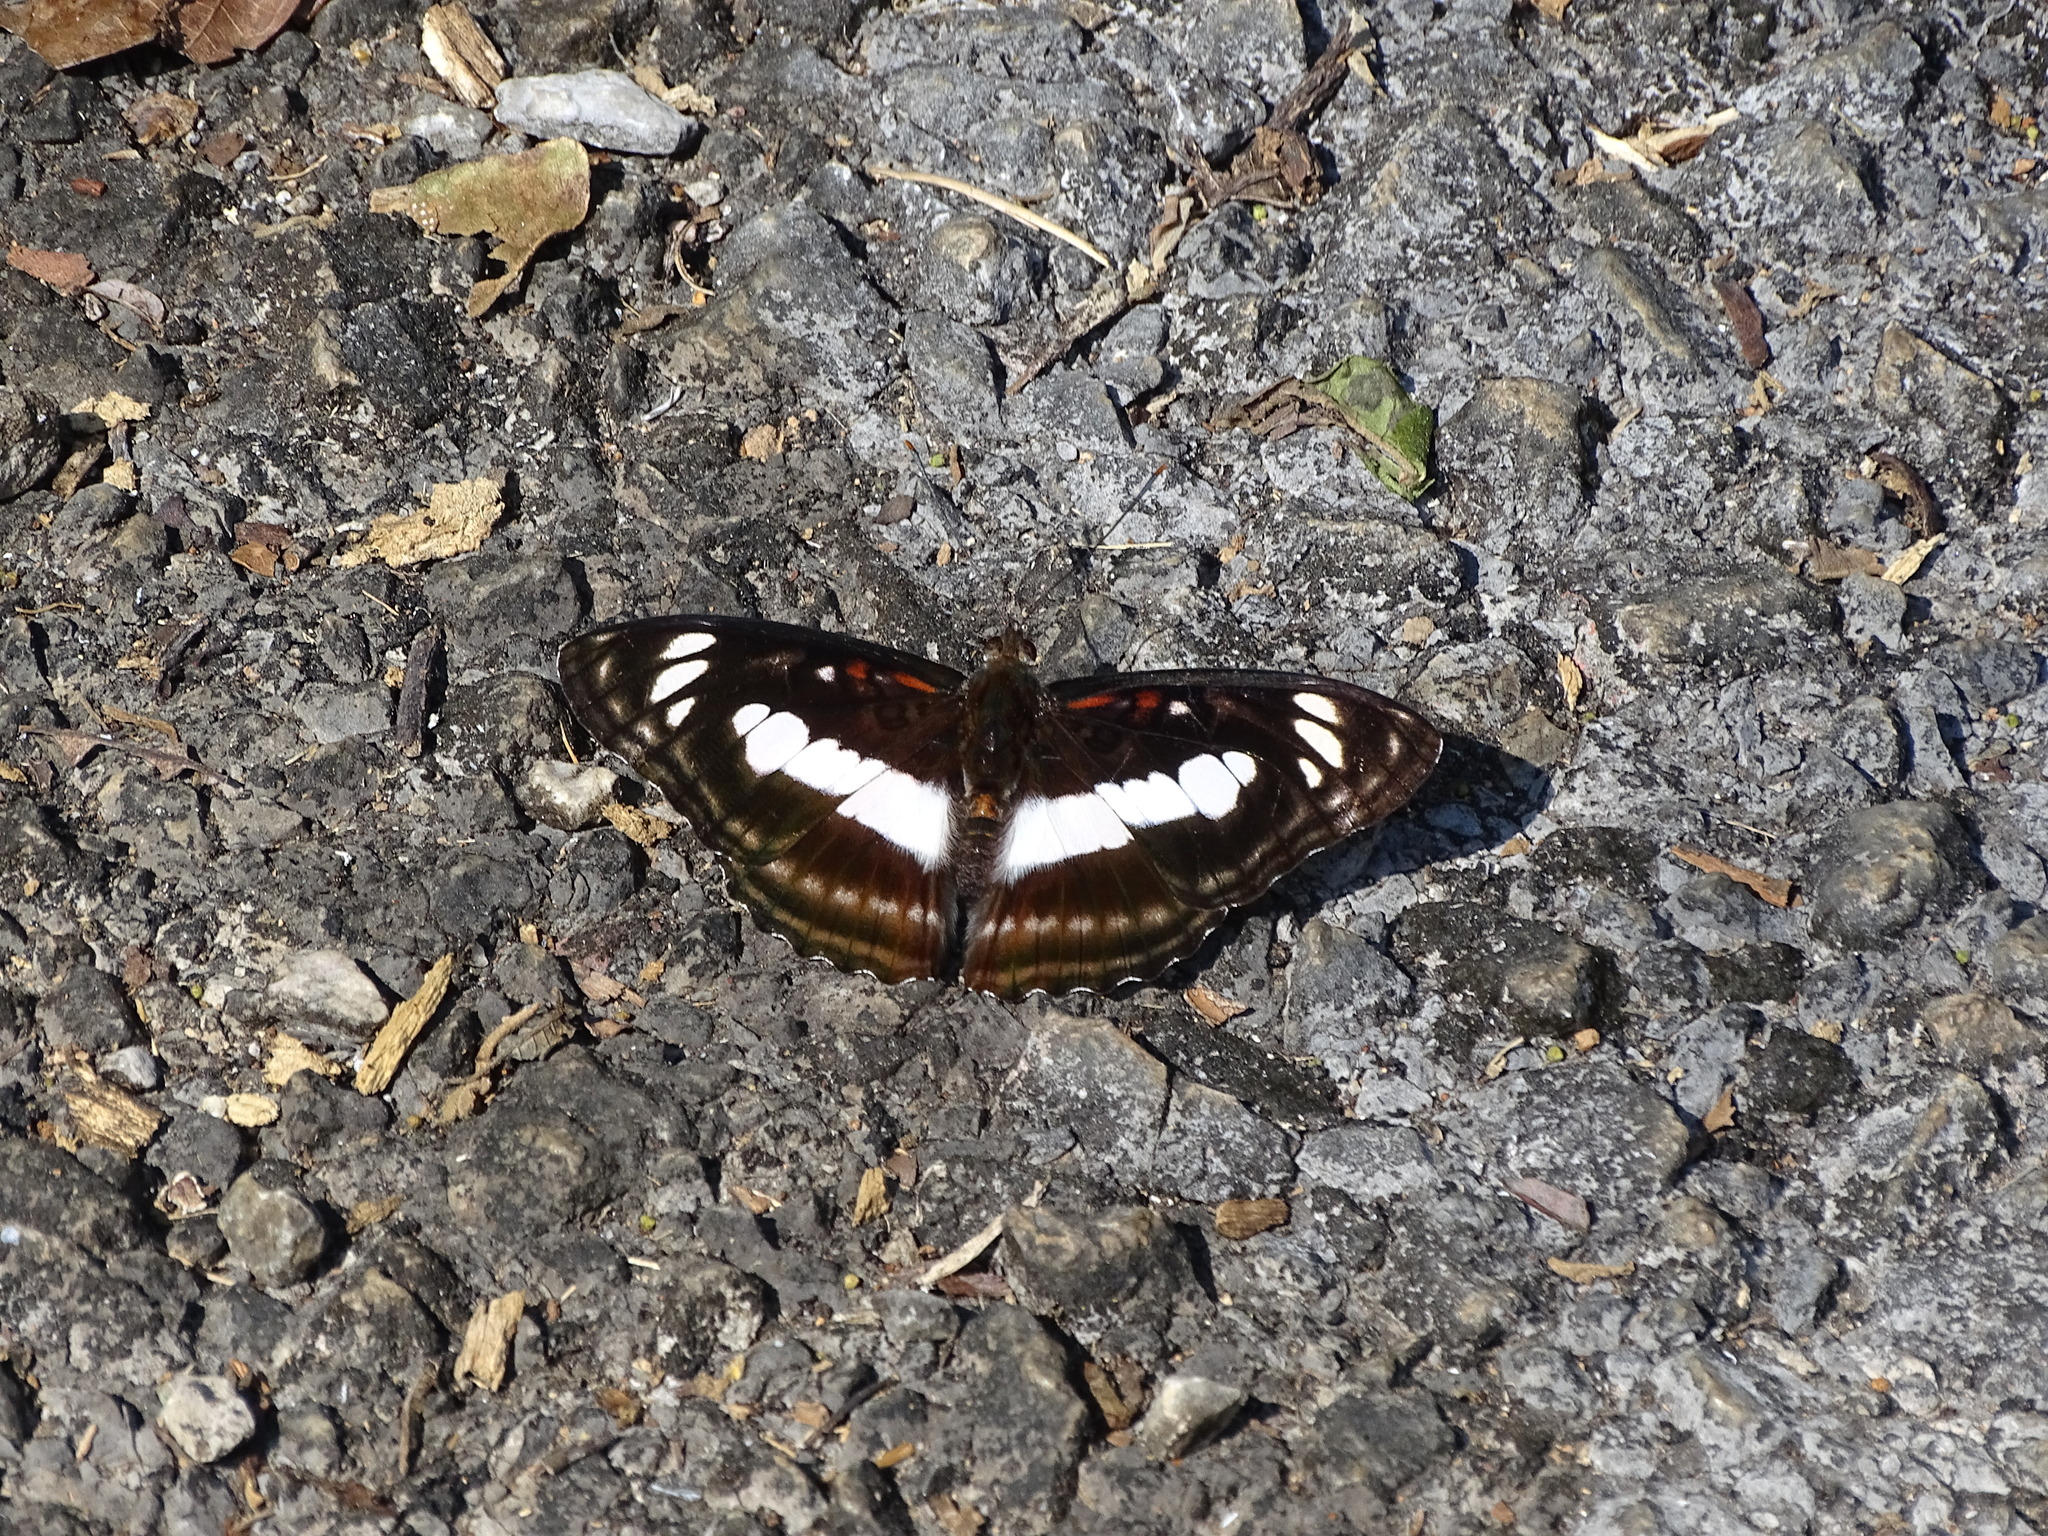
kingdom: Animalia
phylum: Arthropoda
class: Insecta
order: Lepidoptera
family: Nymphalidae
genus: Parathyma
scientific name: Parathyma selenophora
